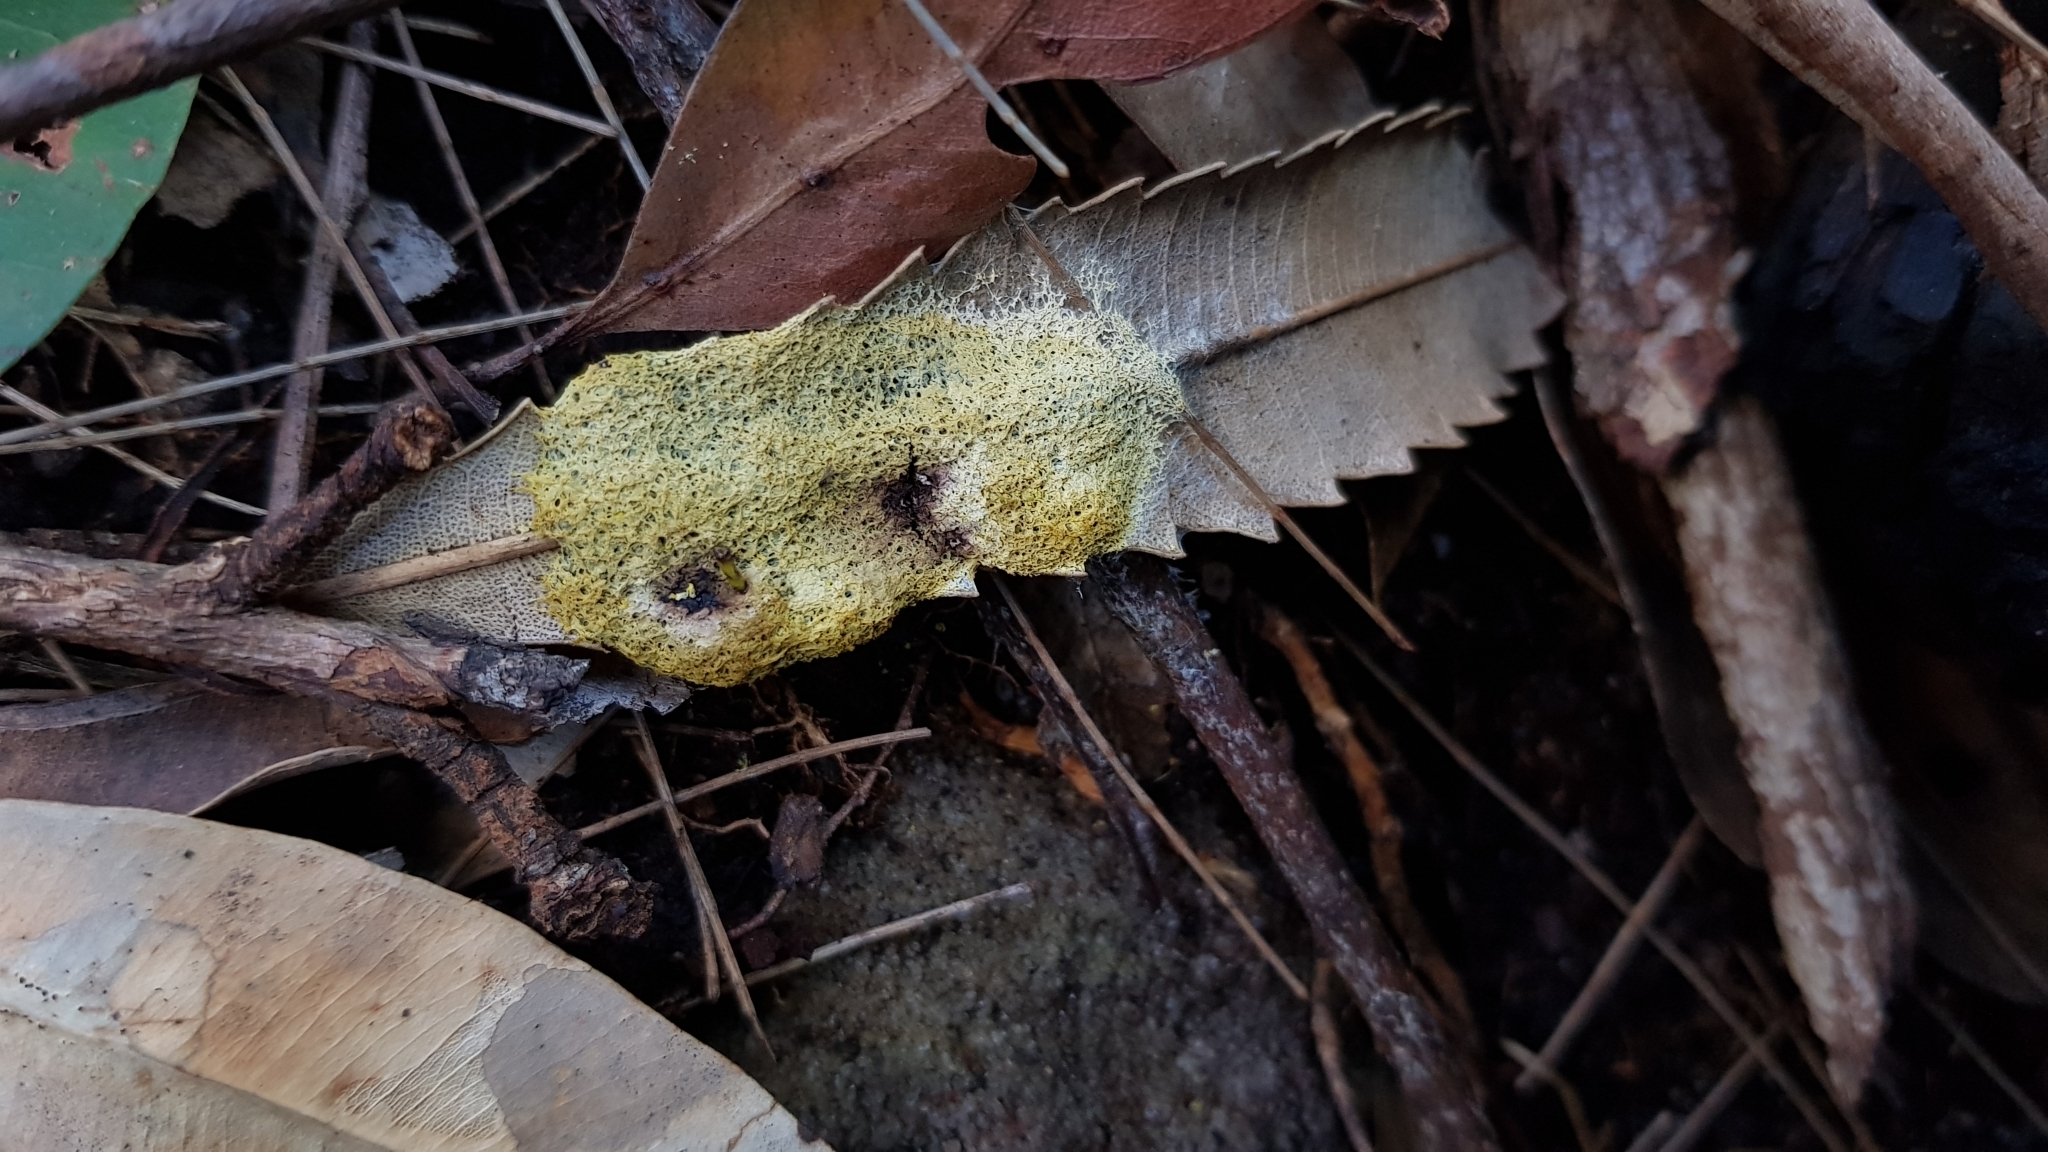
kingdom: Protozoa
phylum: Mycetozoa
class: Myxomycetes
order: Physarales
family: Physaraceae
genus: Fuligo
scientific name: Fuligo septica
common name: Dog vomit slime mold
